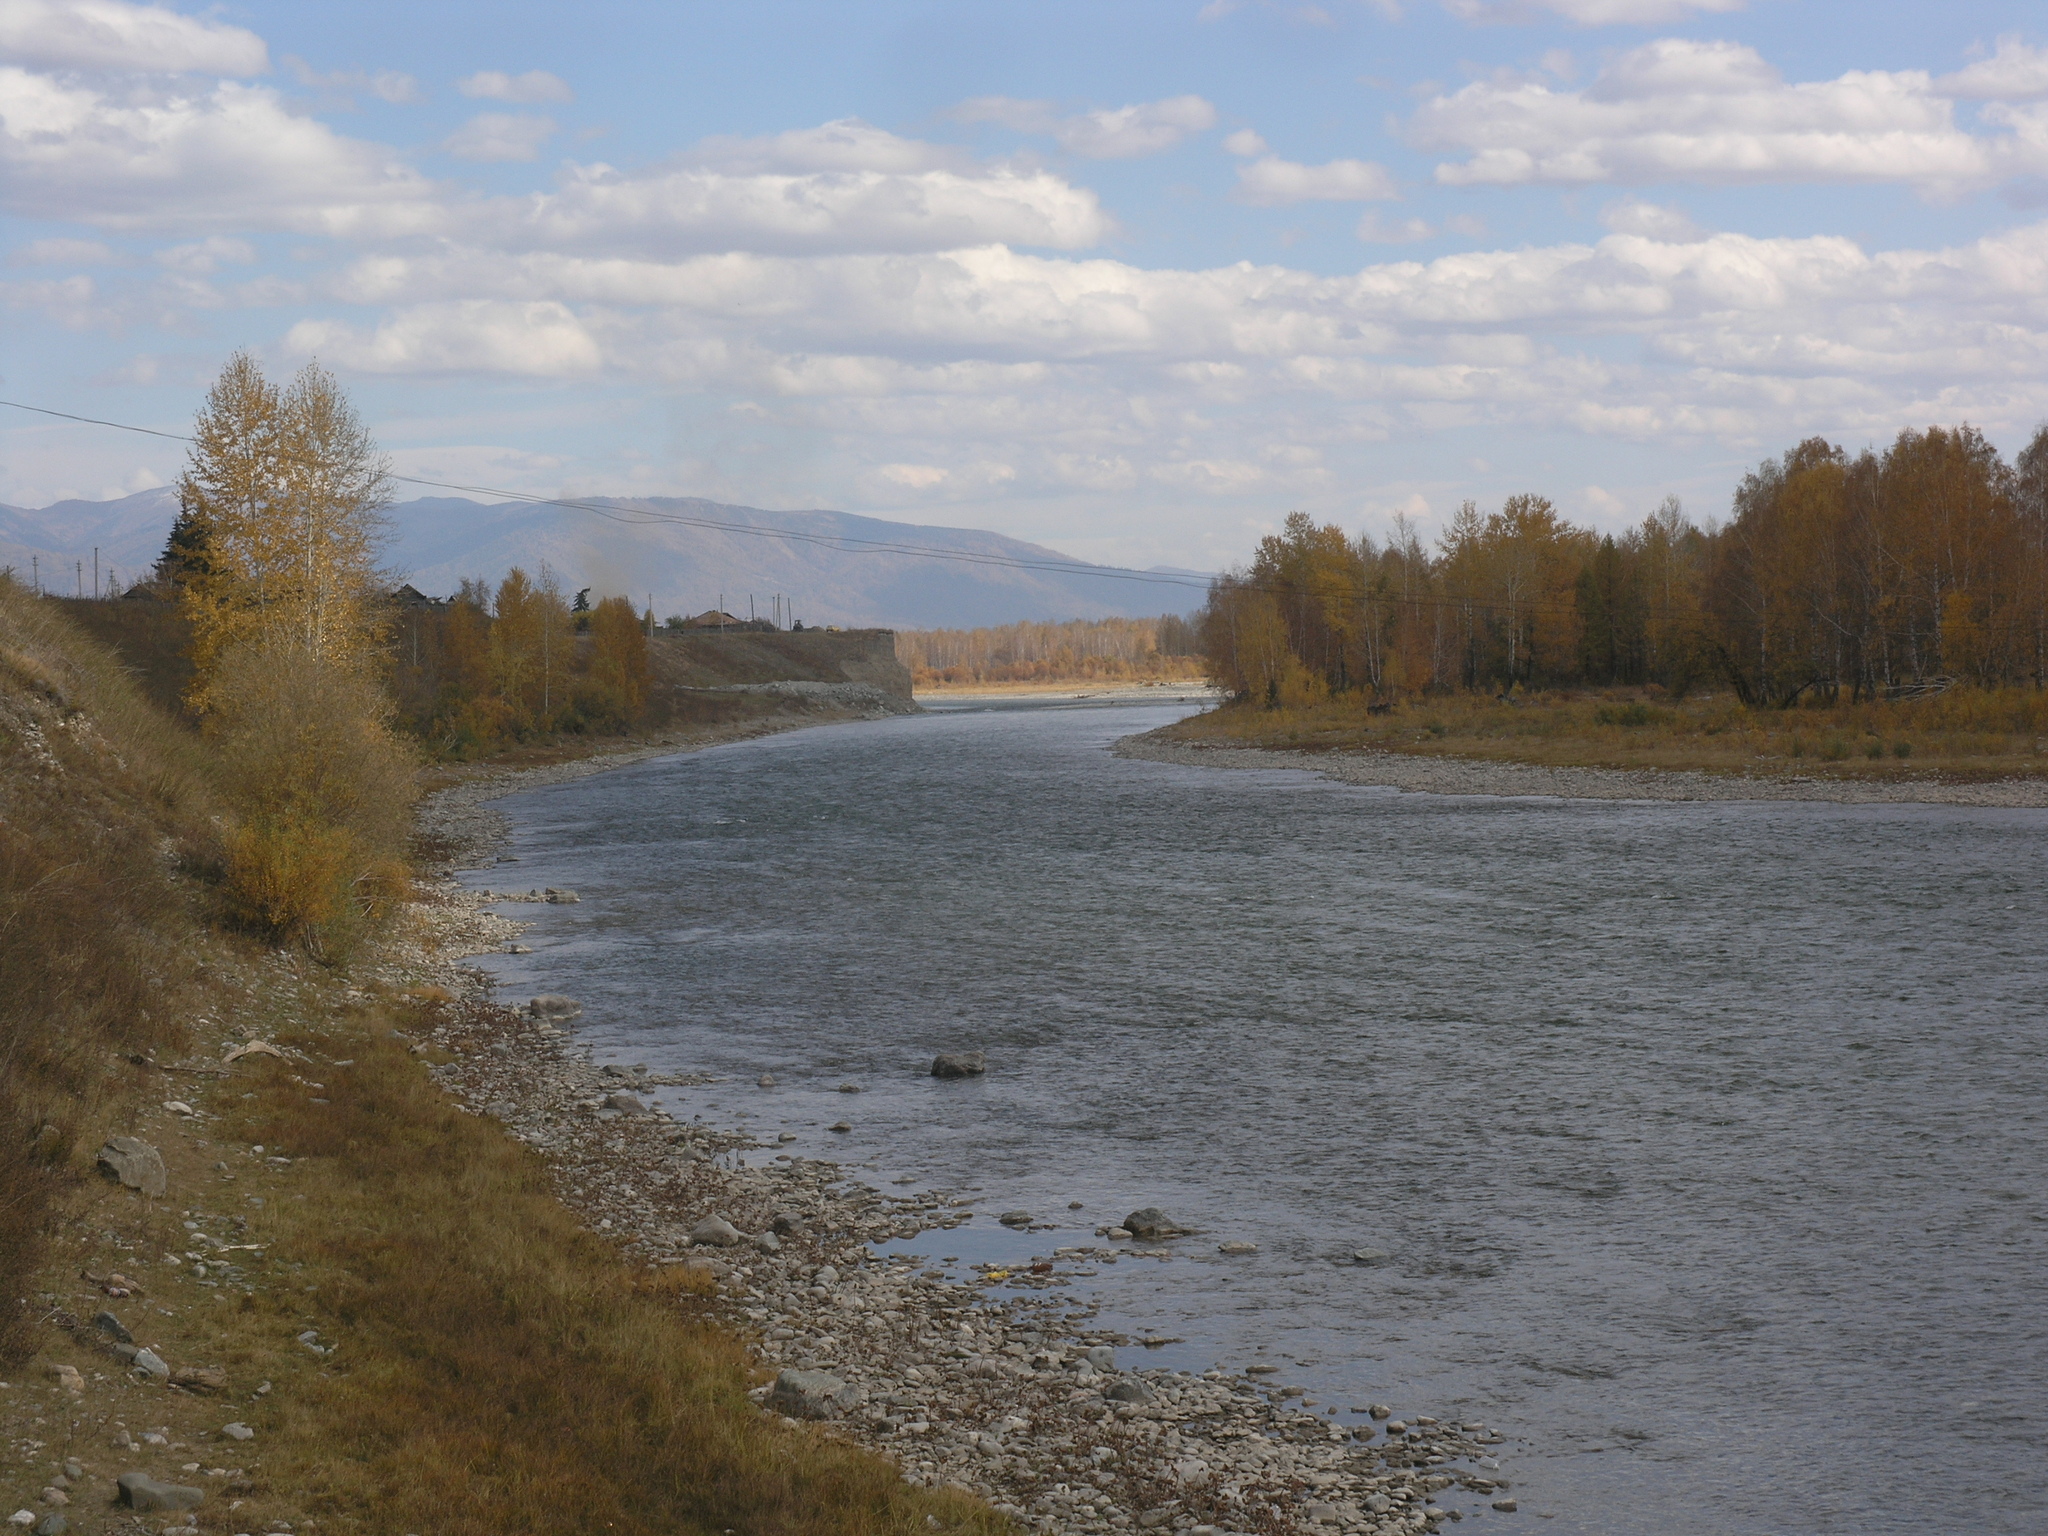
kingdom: Plantae
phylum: Tracheophyta
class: Magnoliopsida
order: Fagales
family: Betulaceae
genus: Betula
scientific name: Betula pendula
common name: Silver birch
